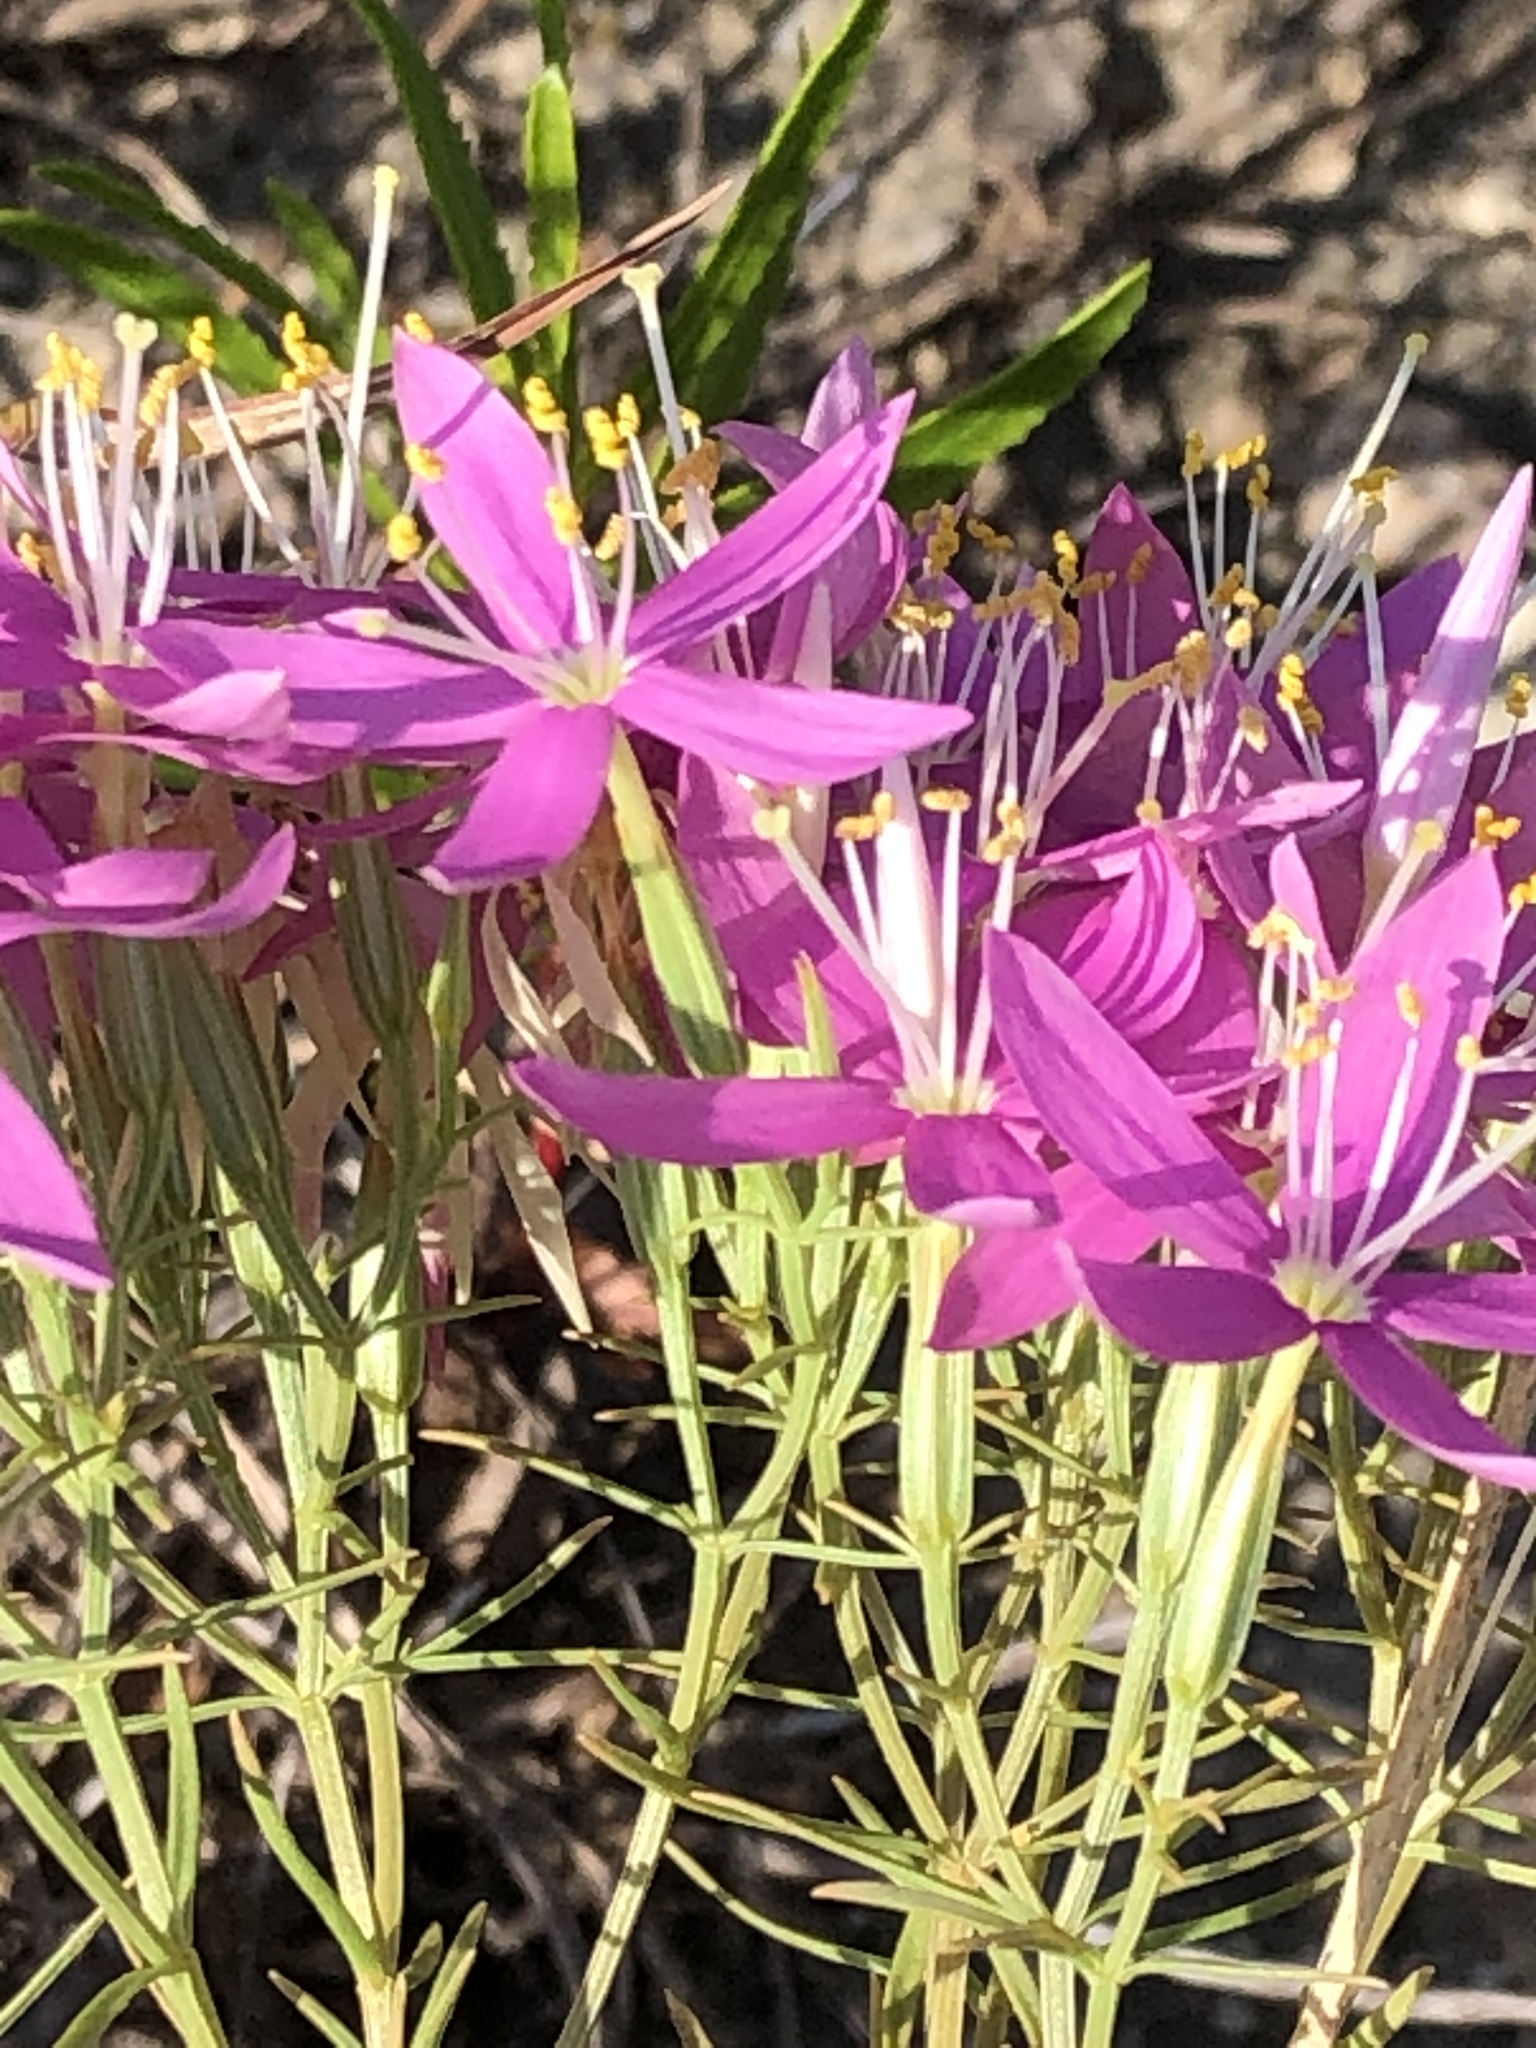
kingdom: Plantae
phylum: Tracheophyta
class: Magnoliopsida
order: Gentianales
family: Gentianaceae
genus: Zeltnera
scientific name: Zeltnera beyrichii
